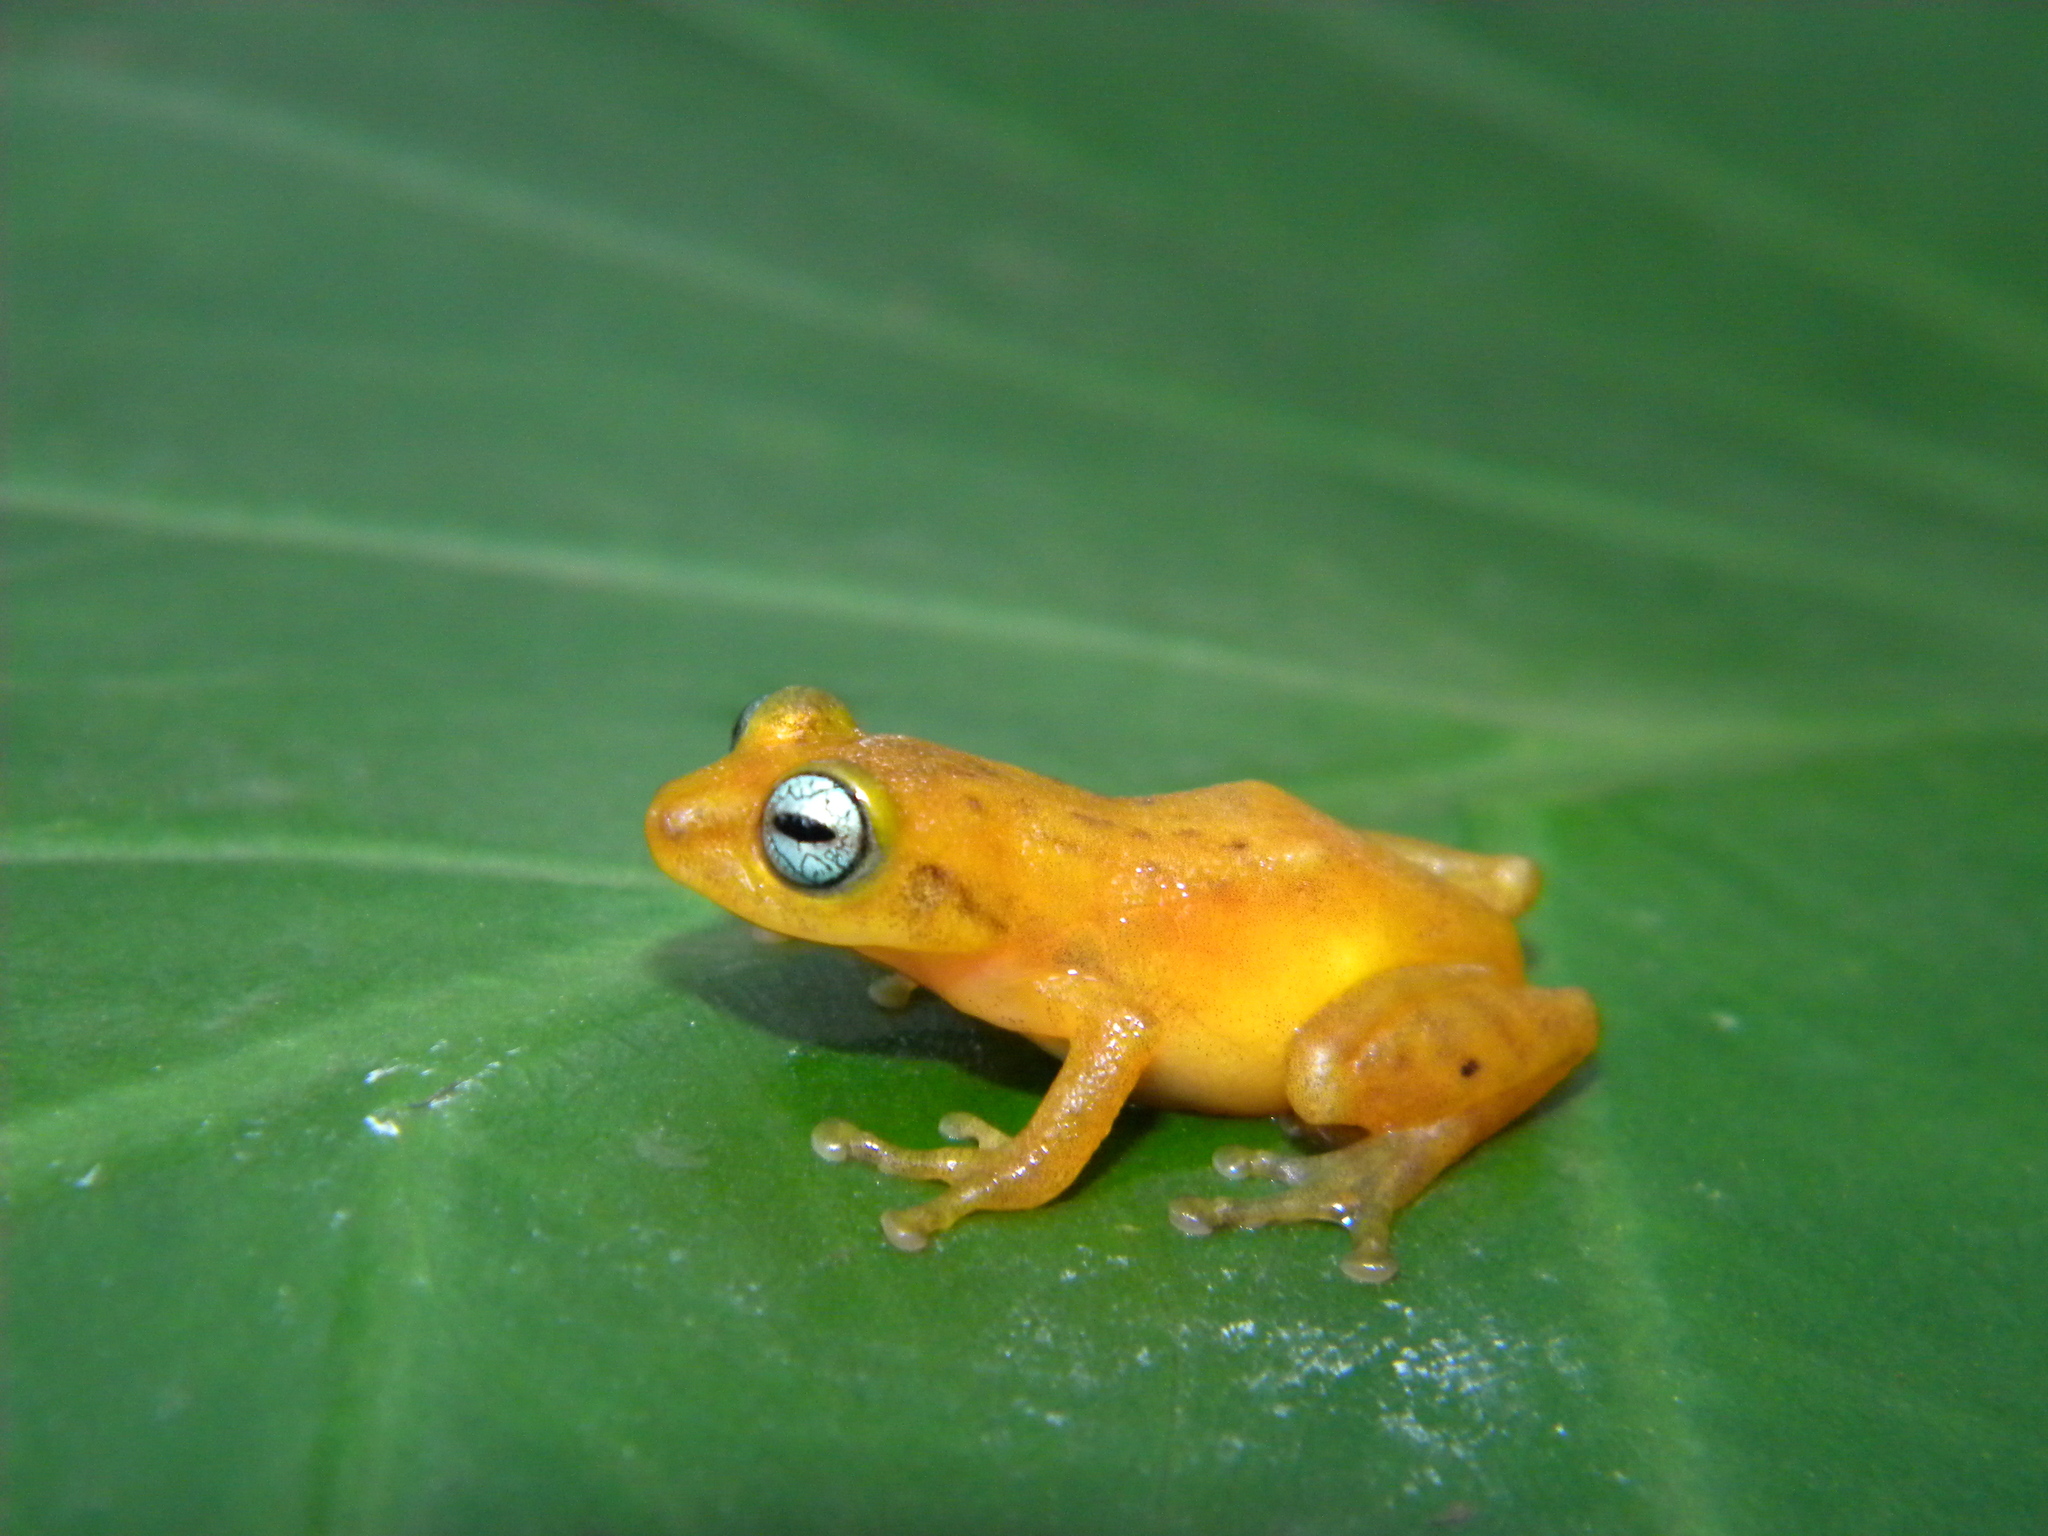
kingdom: Animalia
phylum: Chordata
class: Amphibia
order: Anura
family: Rhacophoridae
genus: Raorchestes
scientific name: Raorchestes uthamani
